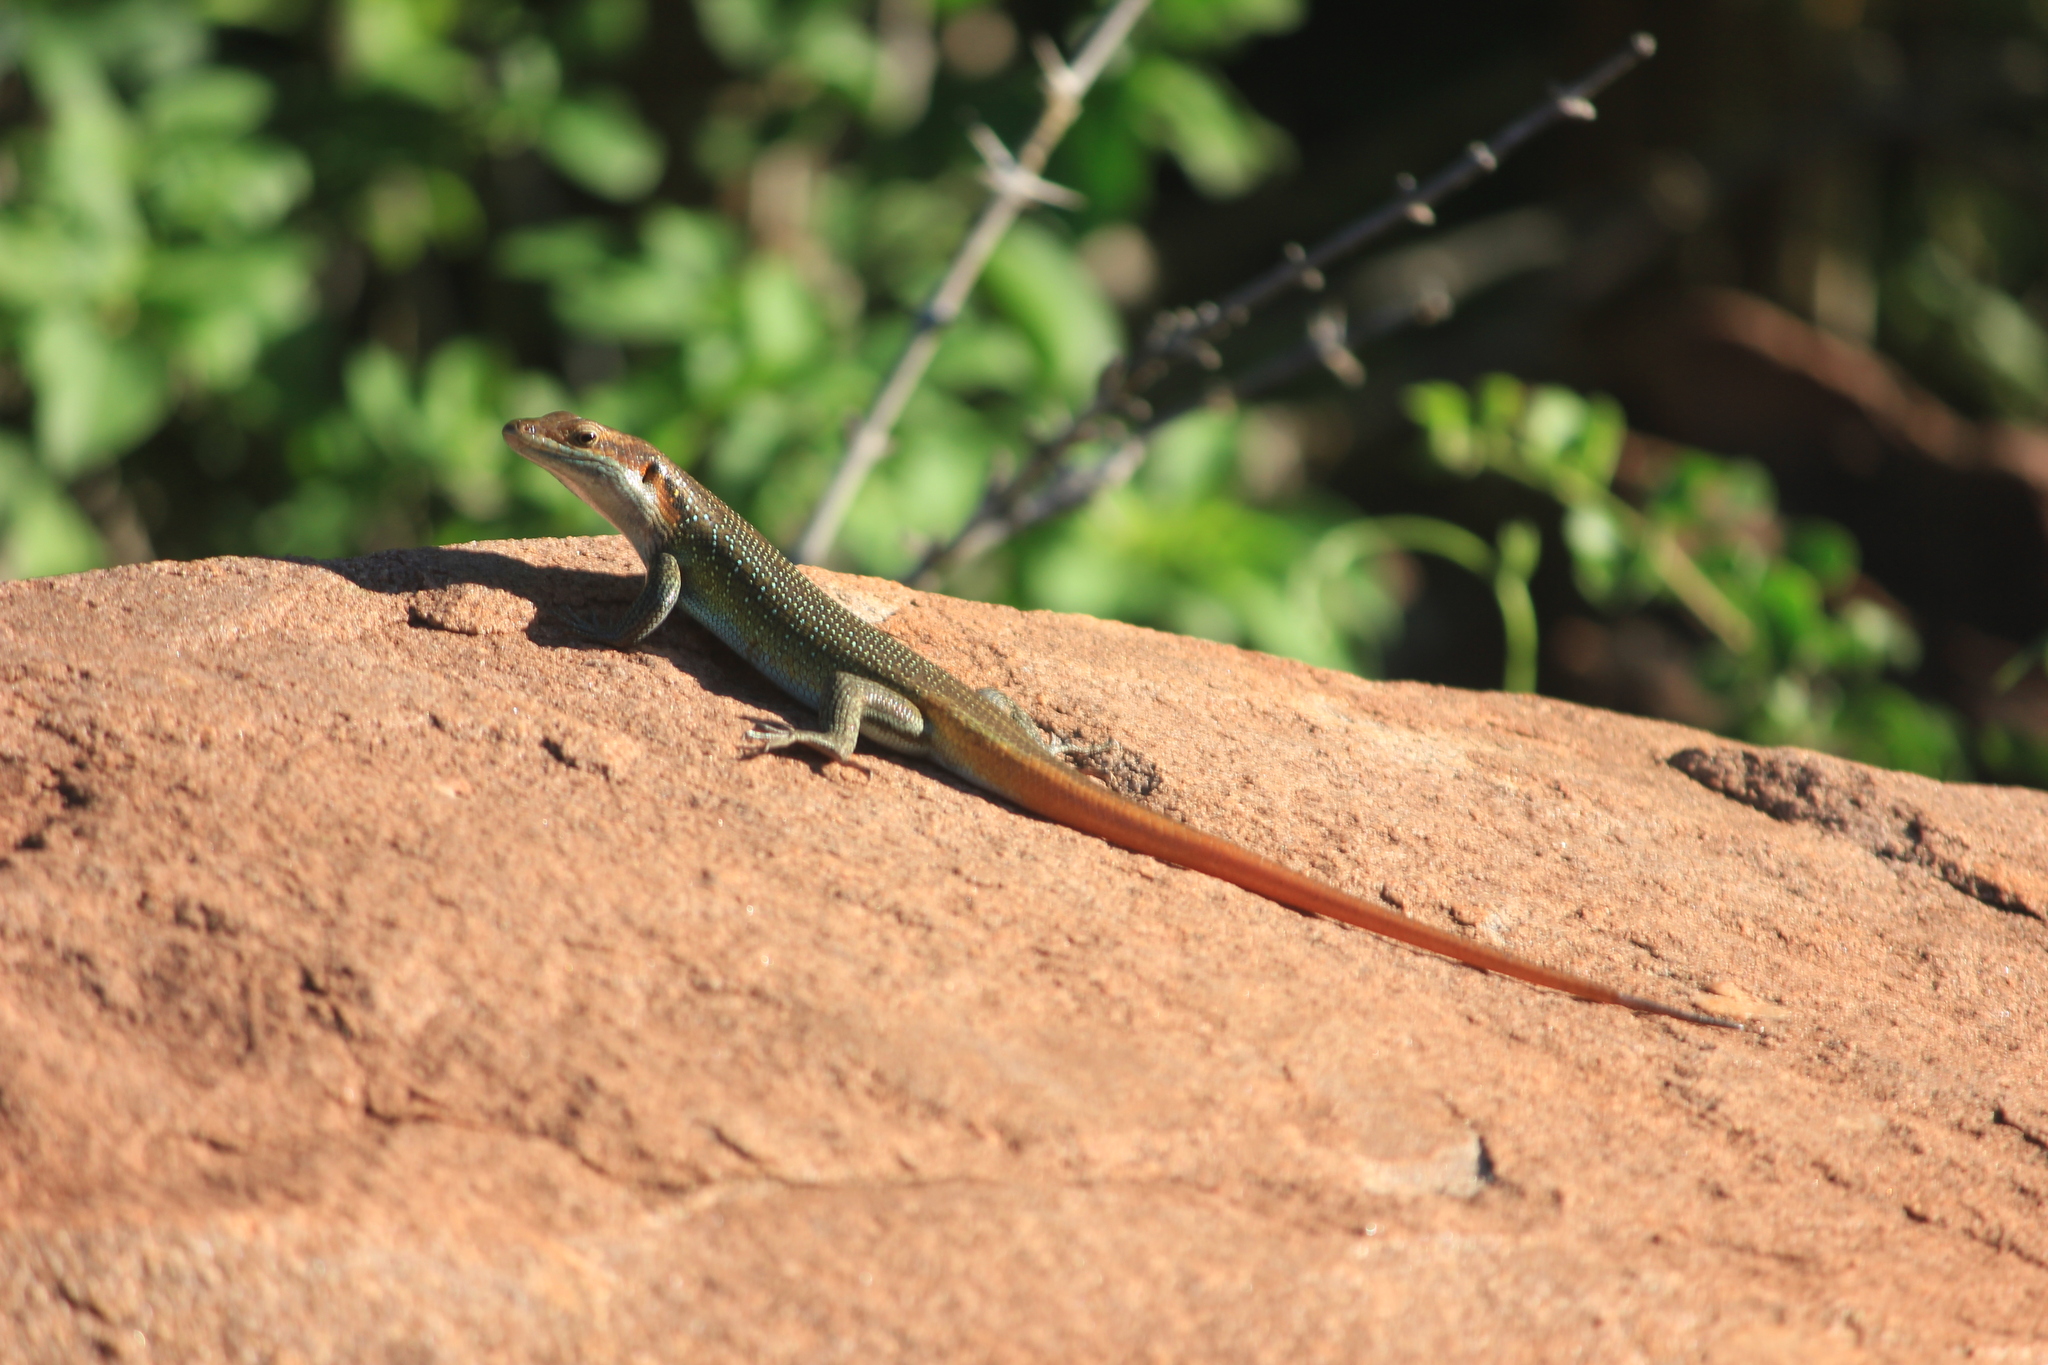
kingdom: Animalia
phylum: Chordata
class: Squamata
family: Scincidae
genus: Trachylepis
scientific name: Trachylepis margaritifera
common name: Rainbow skink
